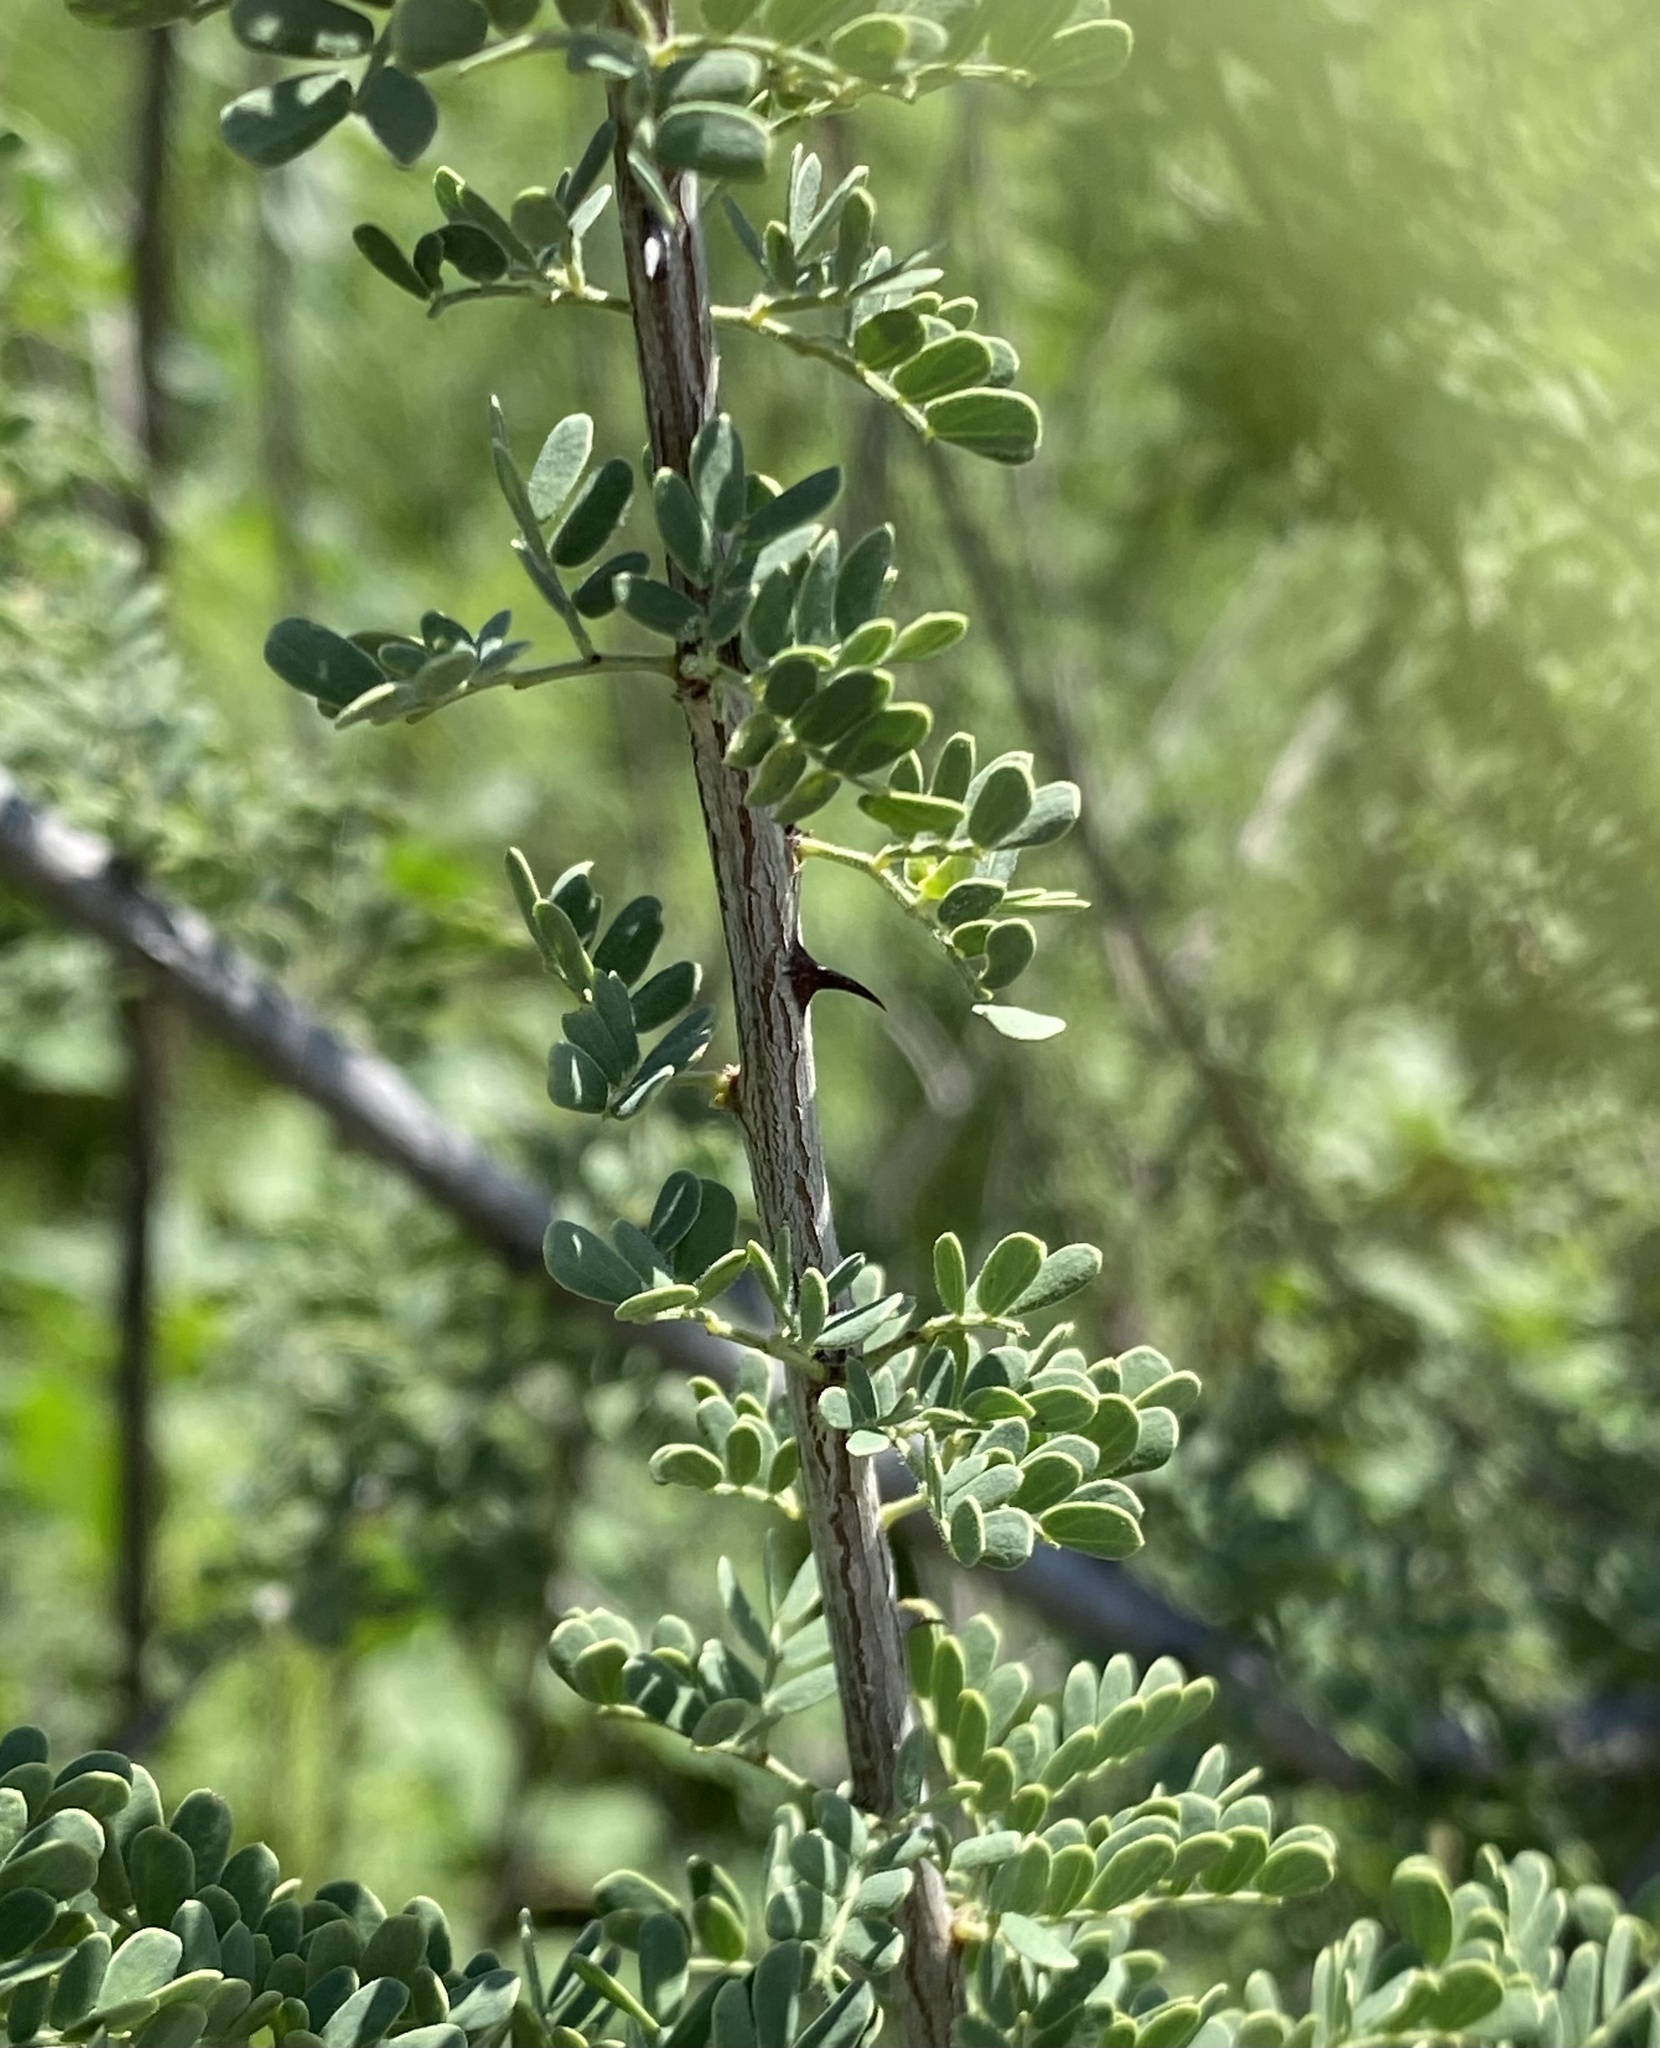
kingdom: Plantae
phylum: Tracheophyta
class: Magnoliopsida
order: Fabales
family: Fabaceae
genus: Senegalia
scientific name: Senegalia greggii
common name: Texas-mimosa
